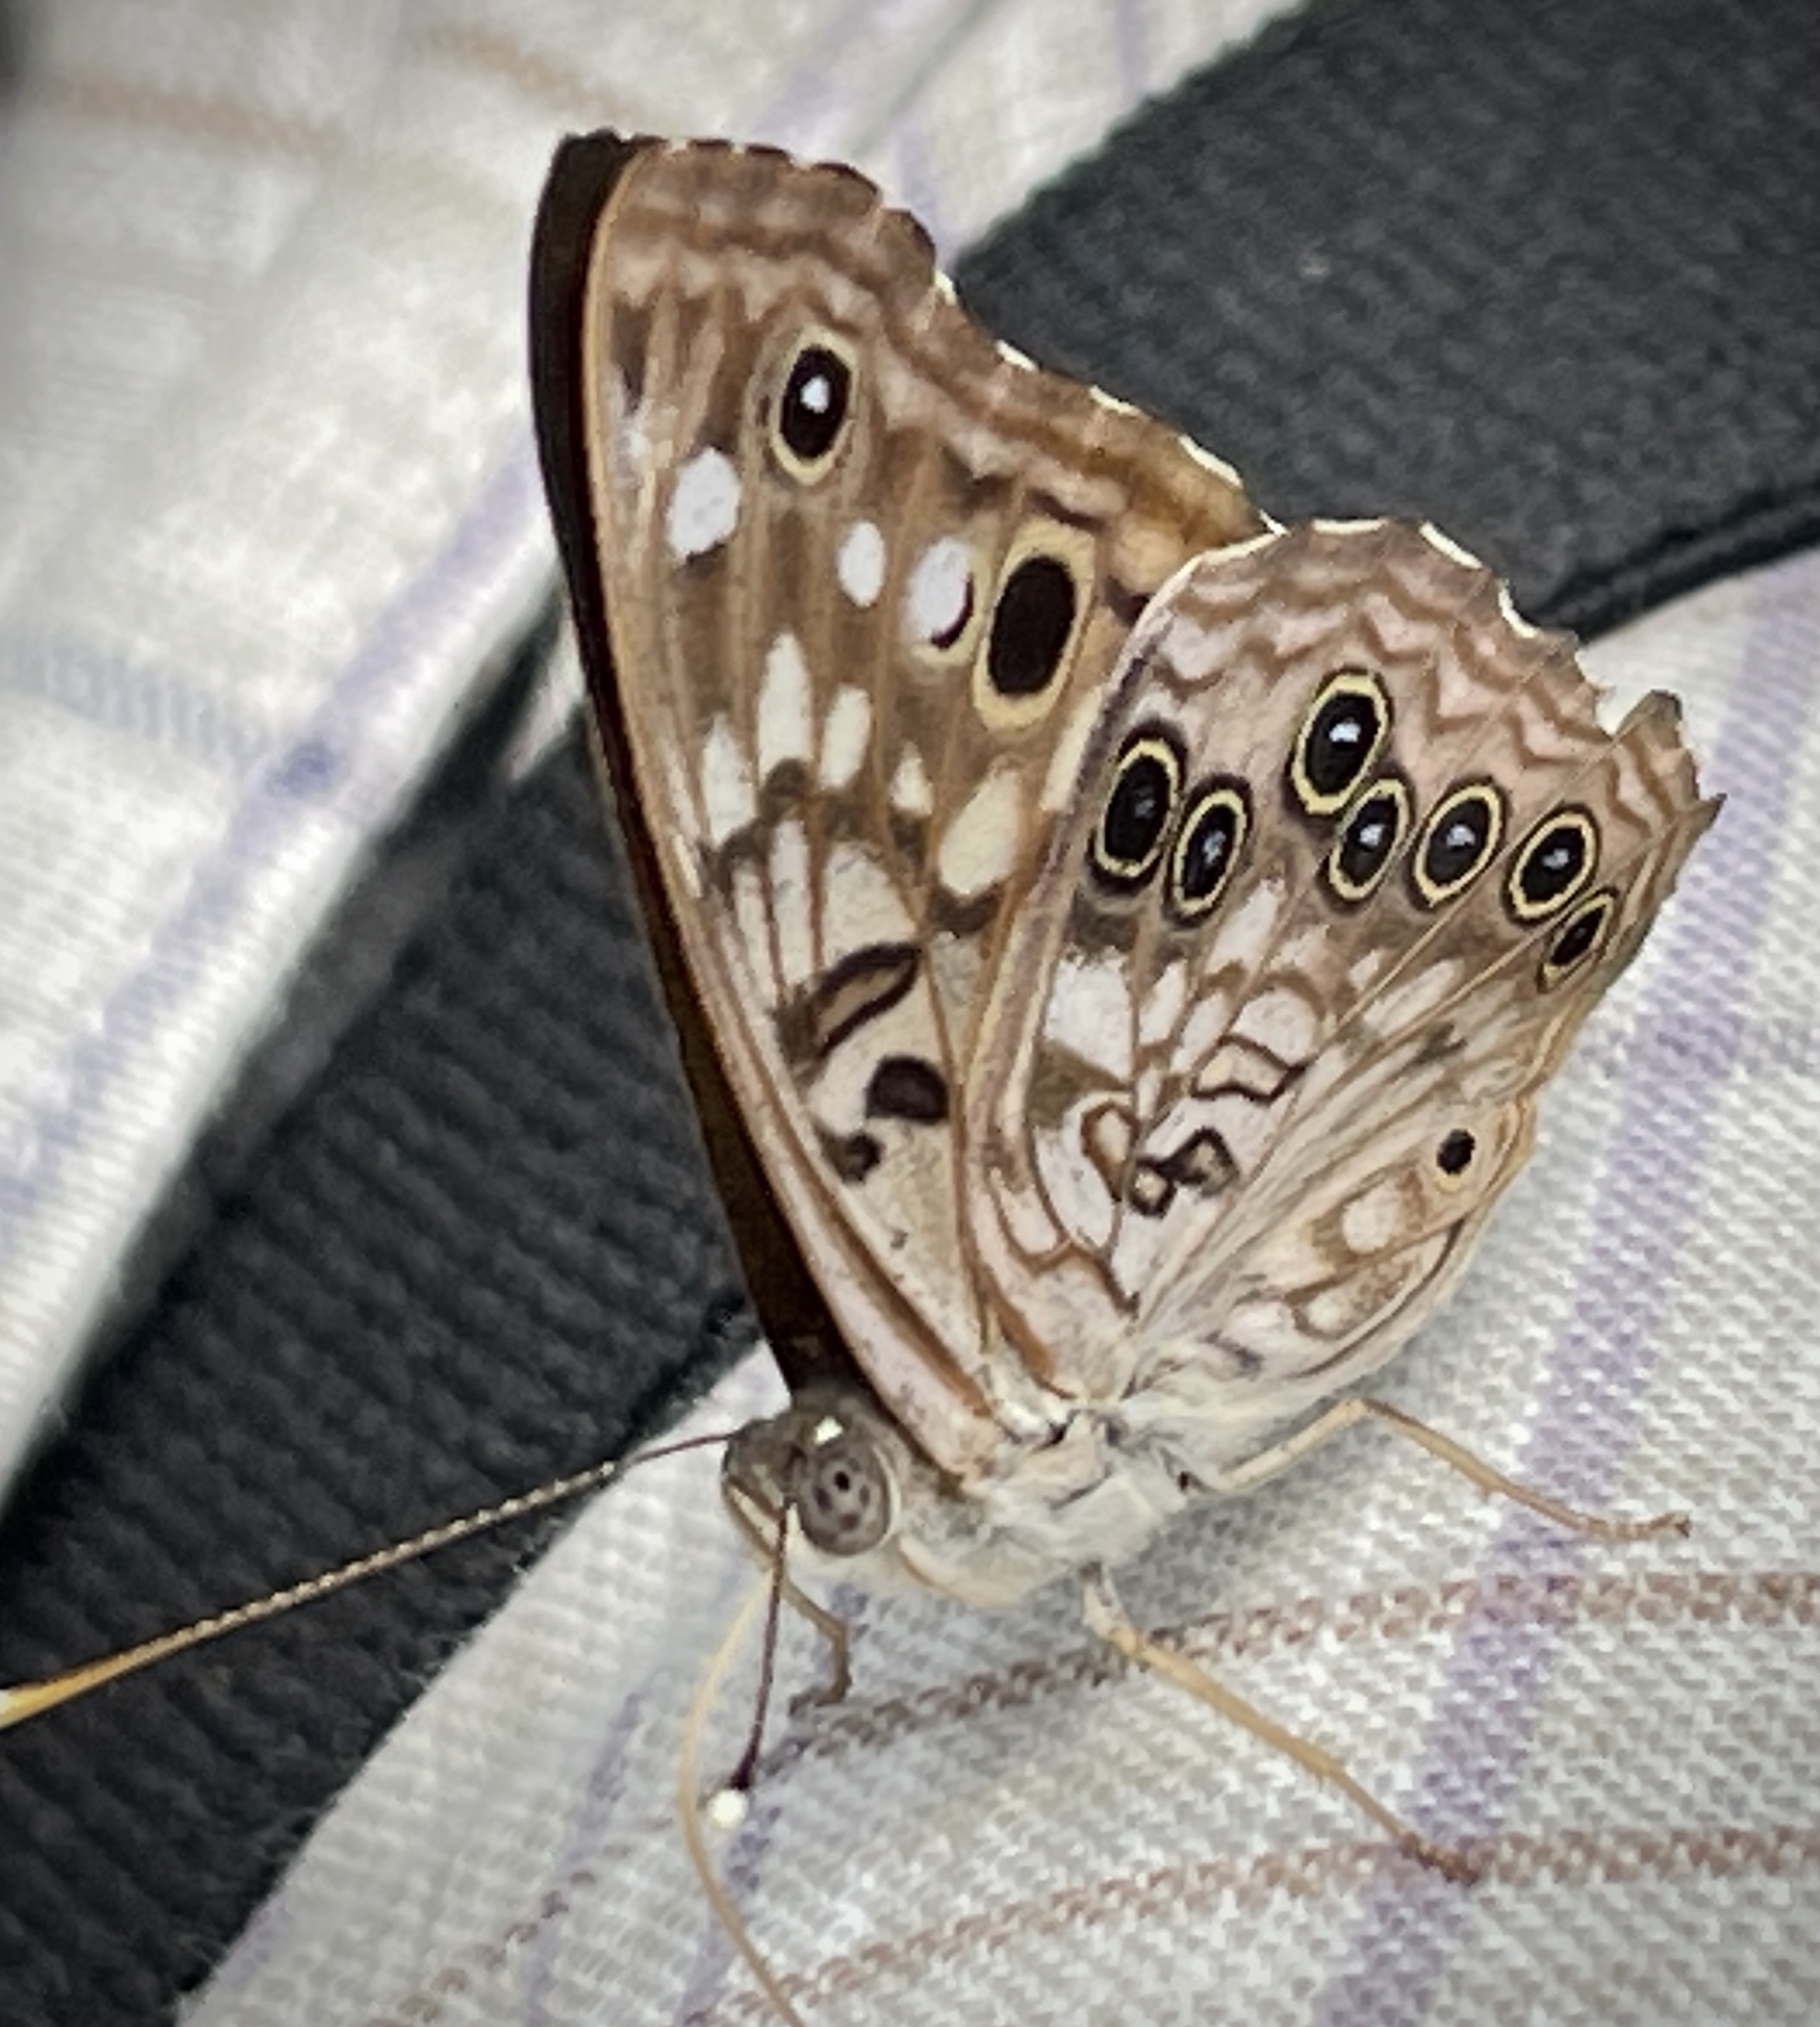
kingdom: Animalia
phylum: Arthropoda
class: Insecta
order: Lepidoptera
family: Nymphalidae
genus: Asterocampa
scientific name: Asterocampa celtis
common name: Hackberry emperor
